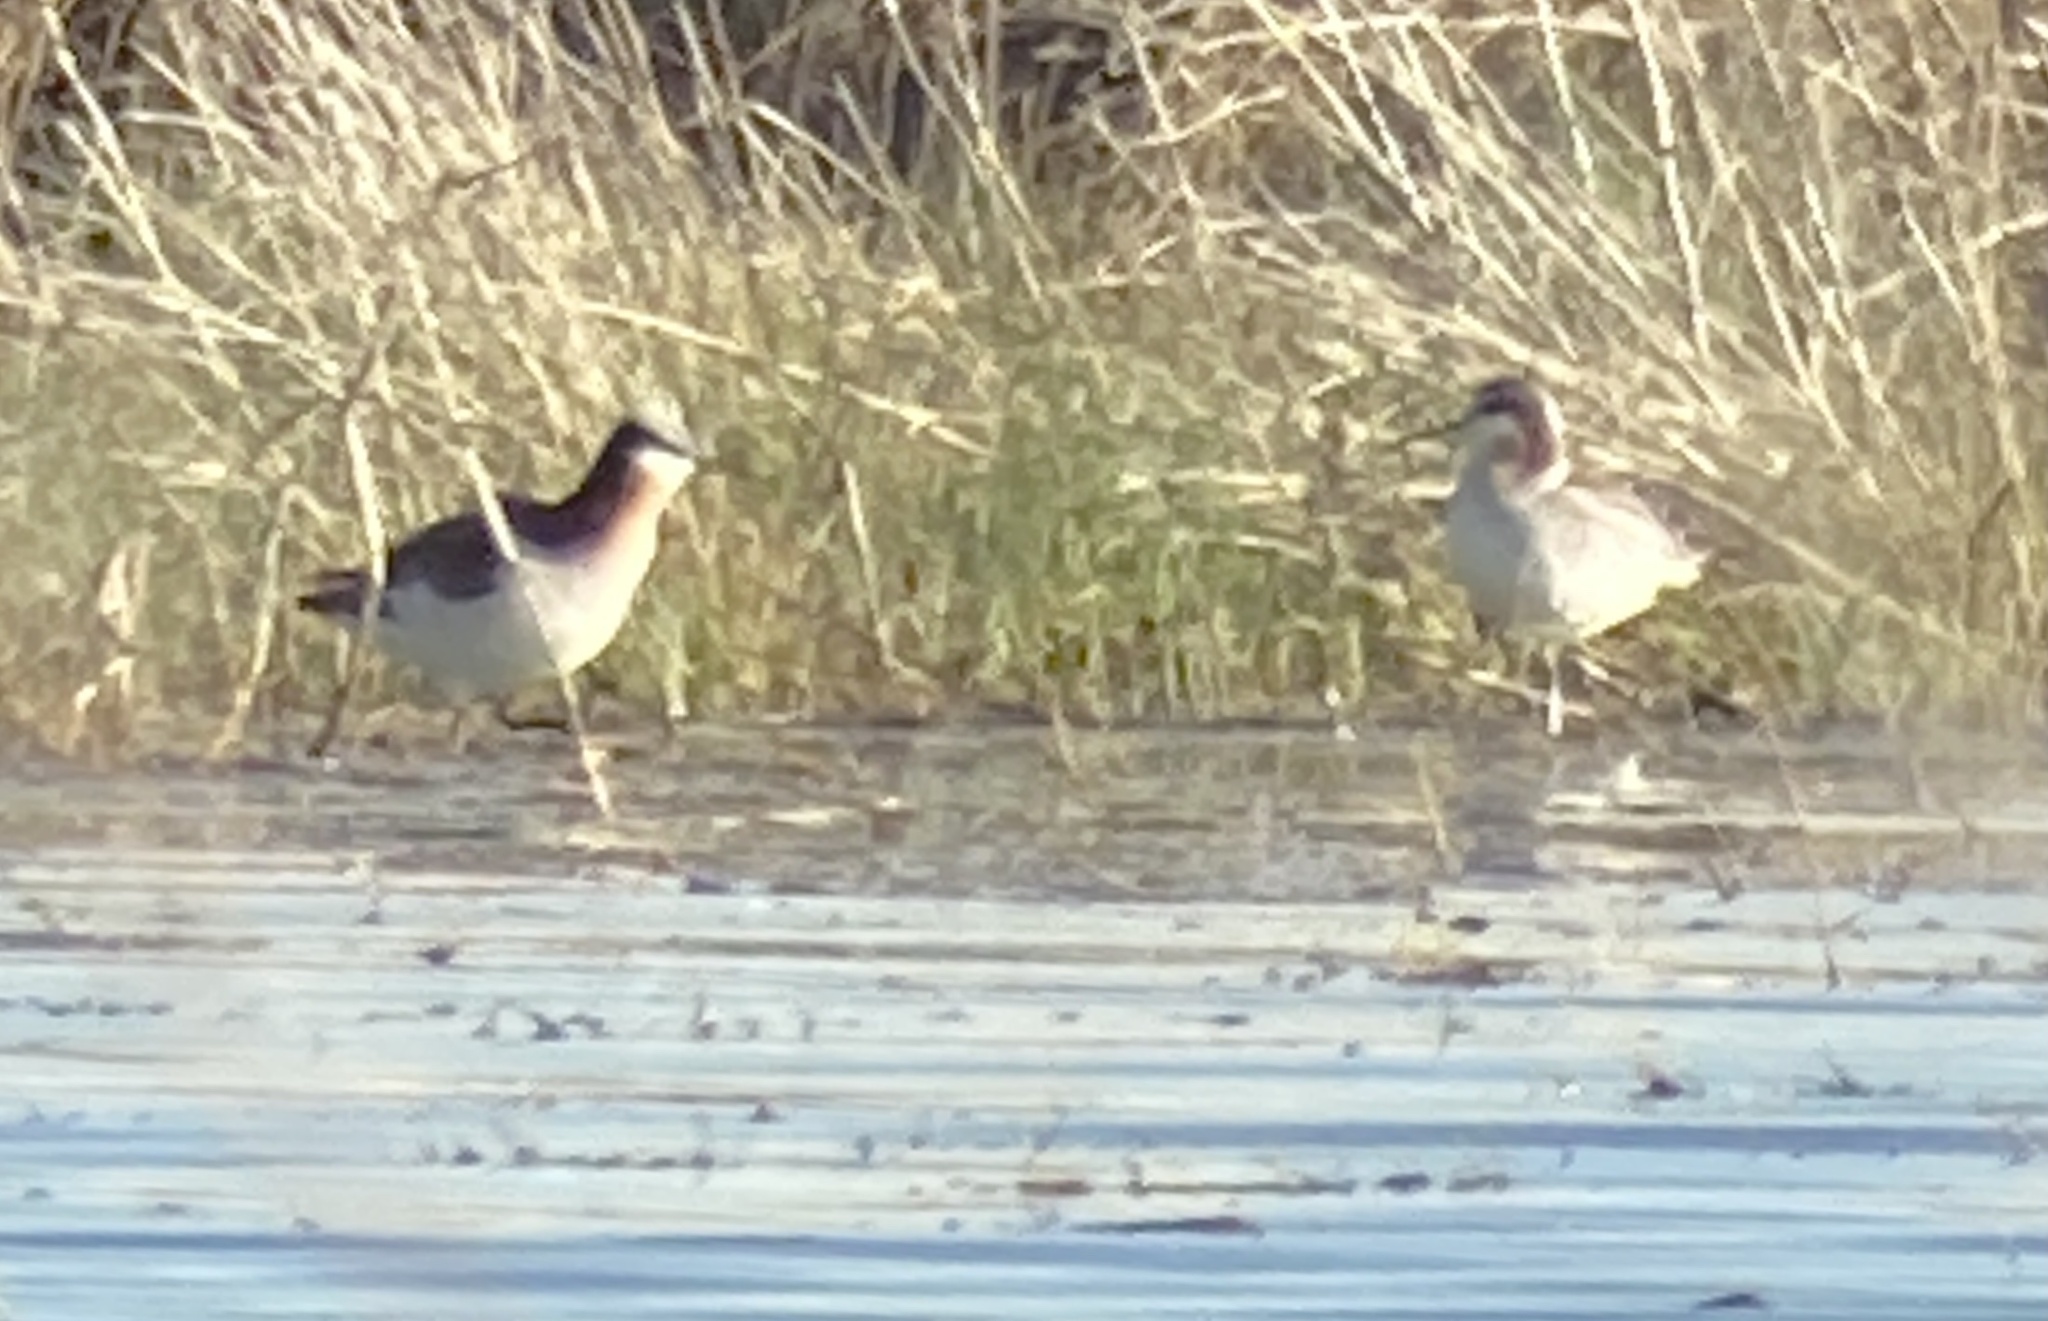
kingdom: Animalia
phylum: Chordata
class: Aves
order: Charadriiformes
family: Scolopacidae
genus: Phalaropus
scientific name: Phalaropus tricolor
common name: Wilson's phalarope
